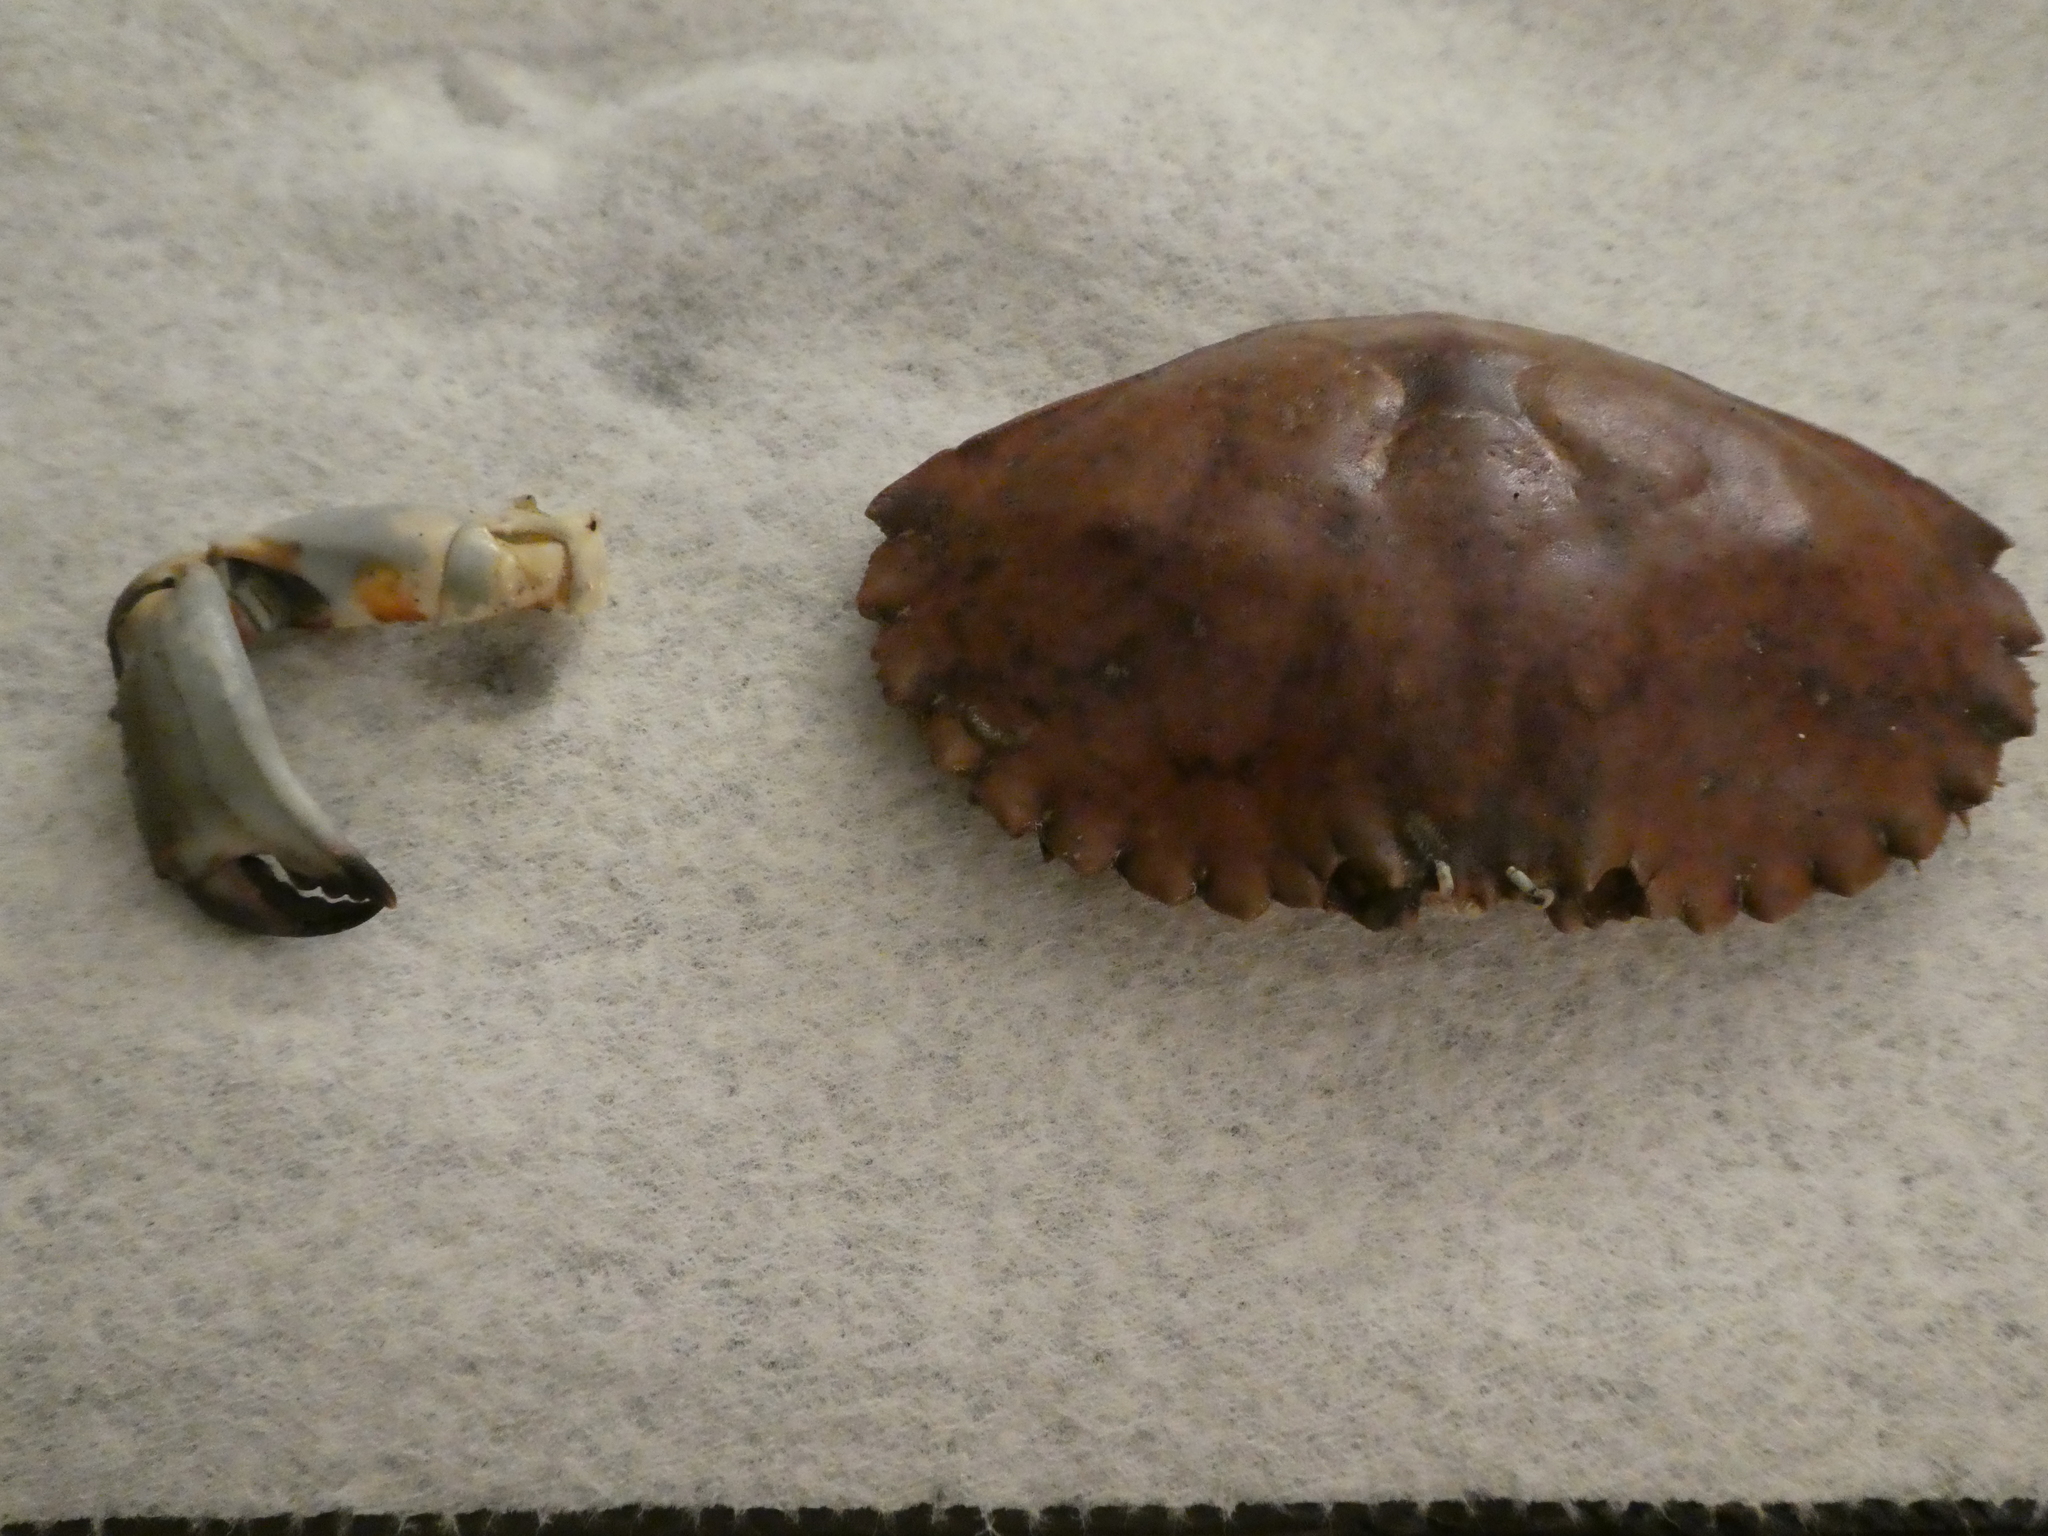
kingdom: Animalia
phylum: Arthropoda
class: Malacostraca
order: Decapoda
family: Cancridae
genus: Metacarcinus
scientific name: Metacarcinus anthonyi
